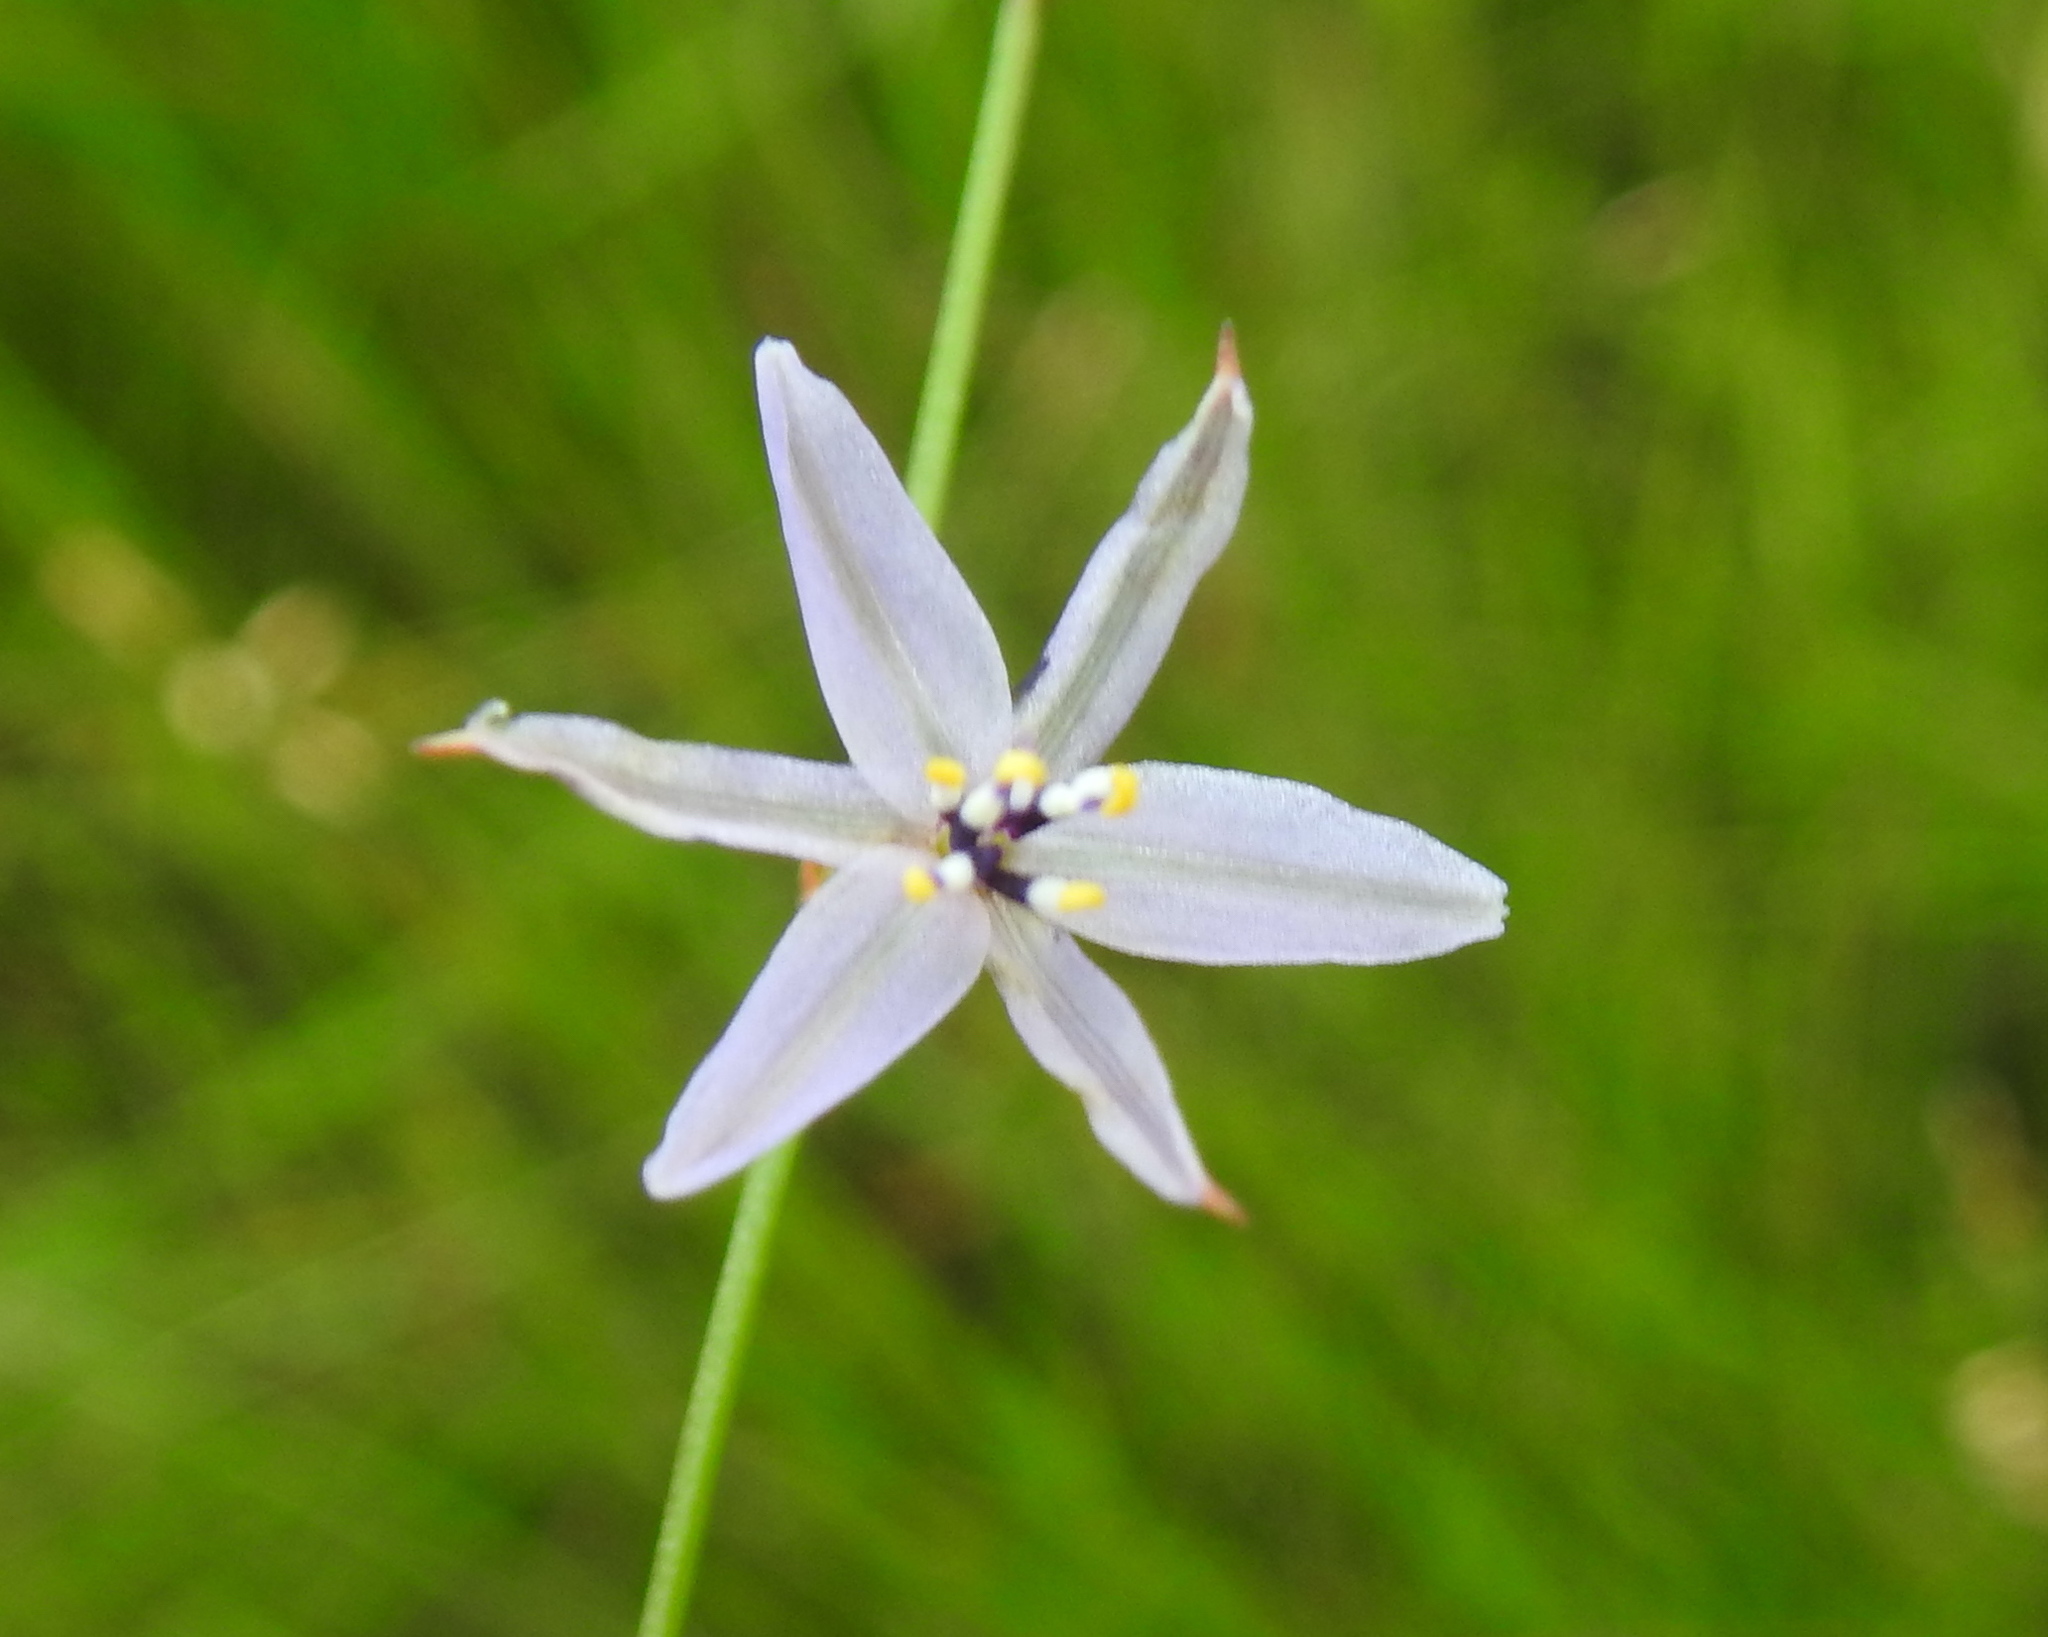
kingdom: Plantae
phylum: Tracheophyta
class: Liliopsida
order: Asparagales
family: Asphodelaceae
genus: Caesia
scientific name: Caesia contorta
